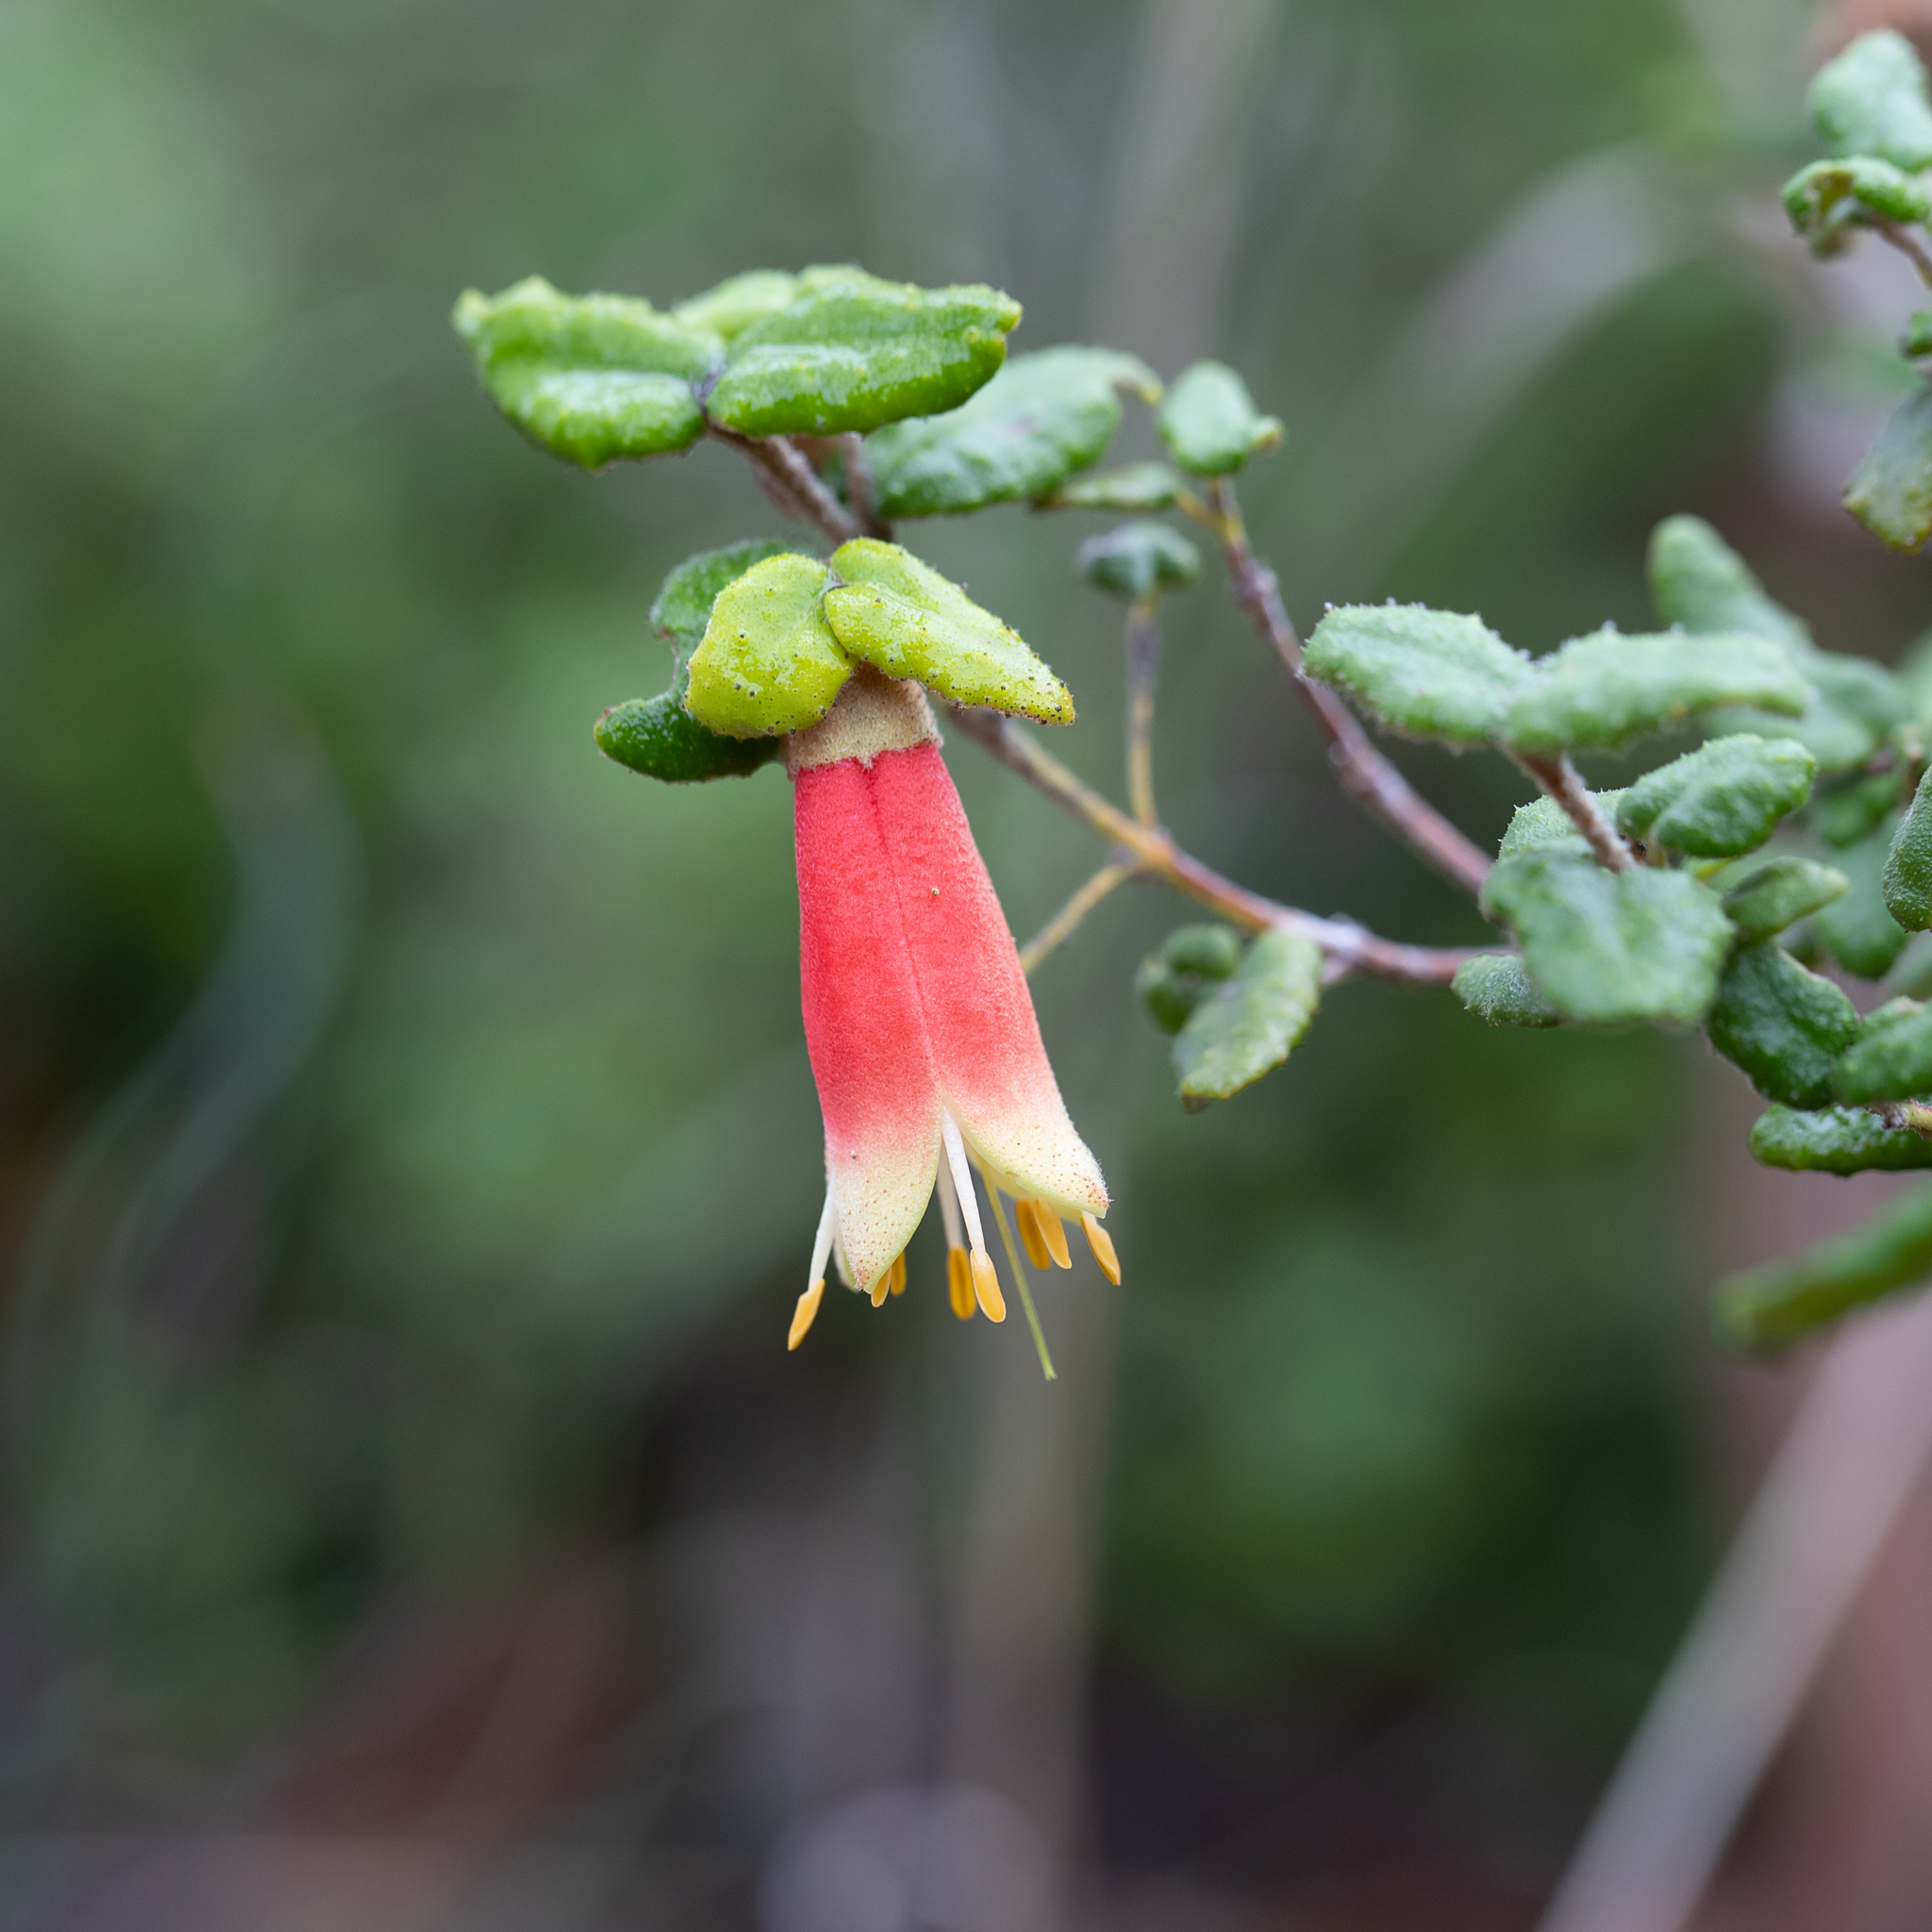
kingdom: Plantae
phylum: Tracheophyta
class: Magnoliopsida
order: Sapindales
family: Rutaceae
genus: Correa
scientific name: Correa reflexa
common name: Common correa
